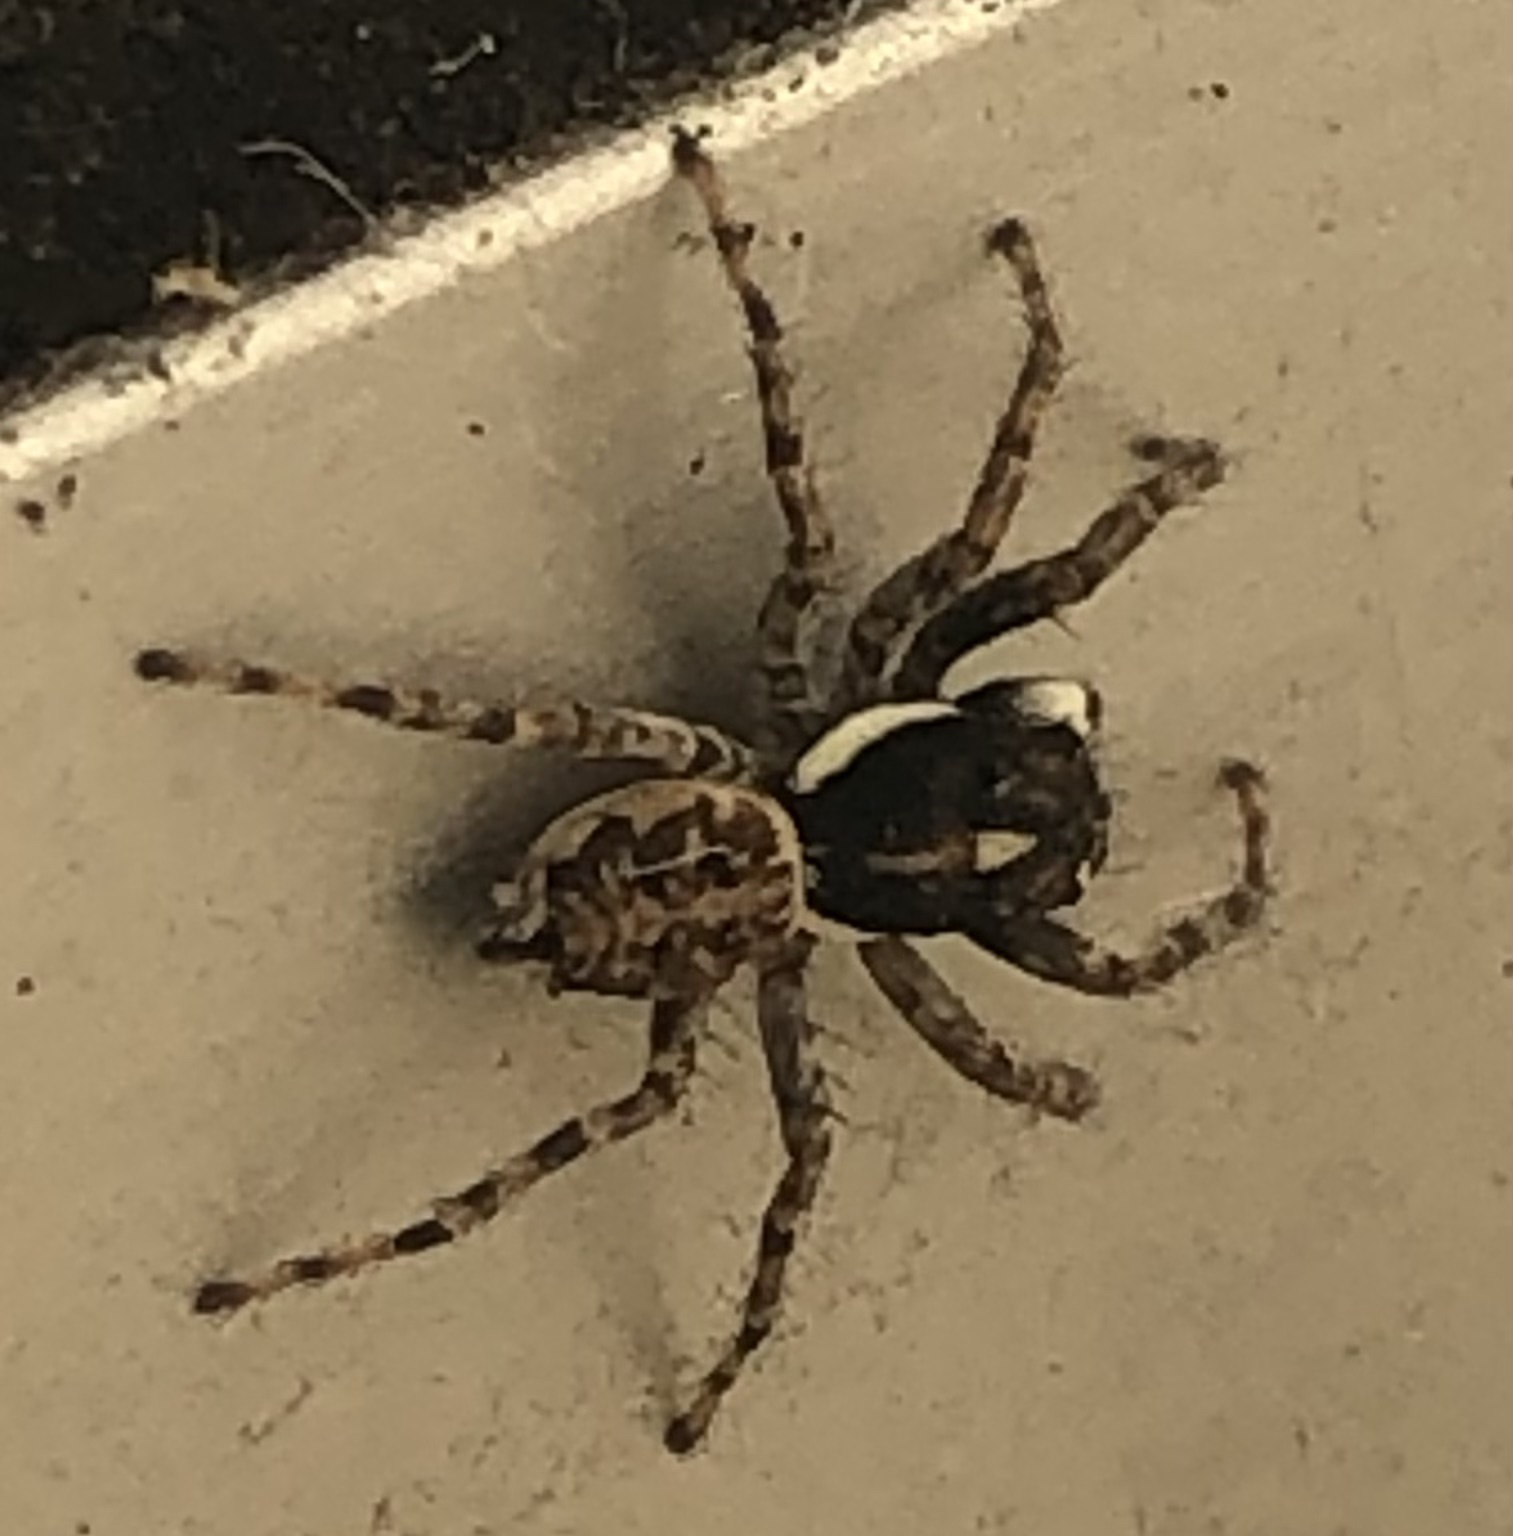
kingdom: Animalia
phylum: Arthropoda
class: Arachnida
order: Araneae
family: Salticidae
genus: Menemerus
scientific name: Menemerus semilimbatus
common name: Jumping spider
